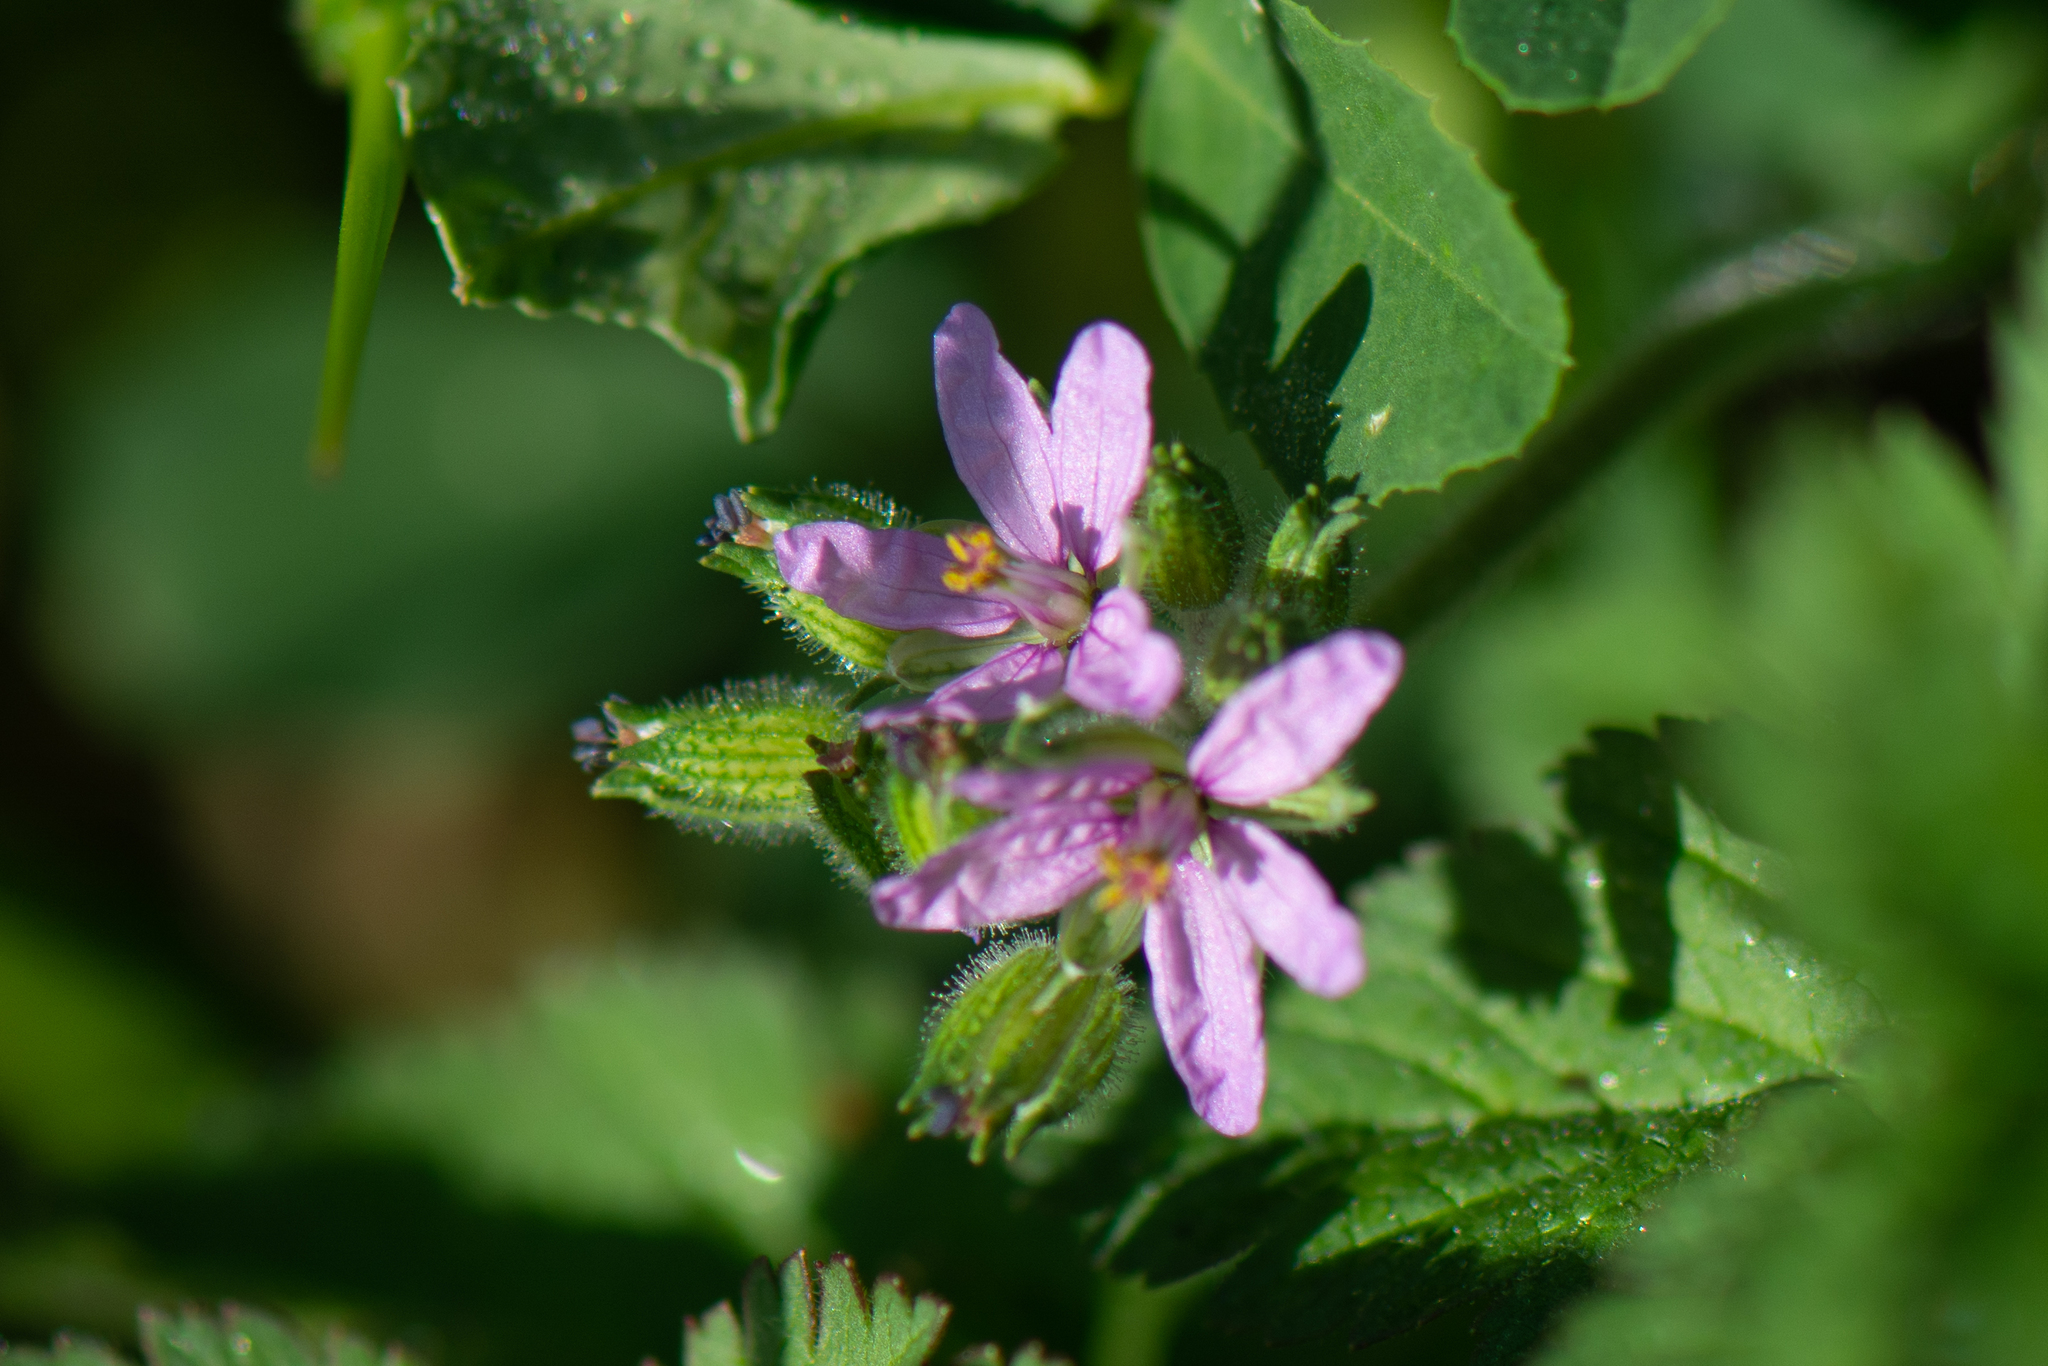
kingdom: Plantae
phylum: Tracheophyta
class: Magnoliopsida
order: Geraniales
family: Geraniaceae
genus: Erodium
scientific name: Erodium moschatum
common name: Musk stork's-bill
